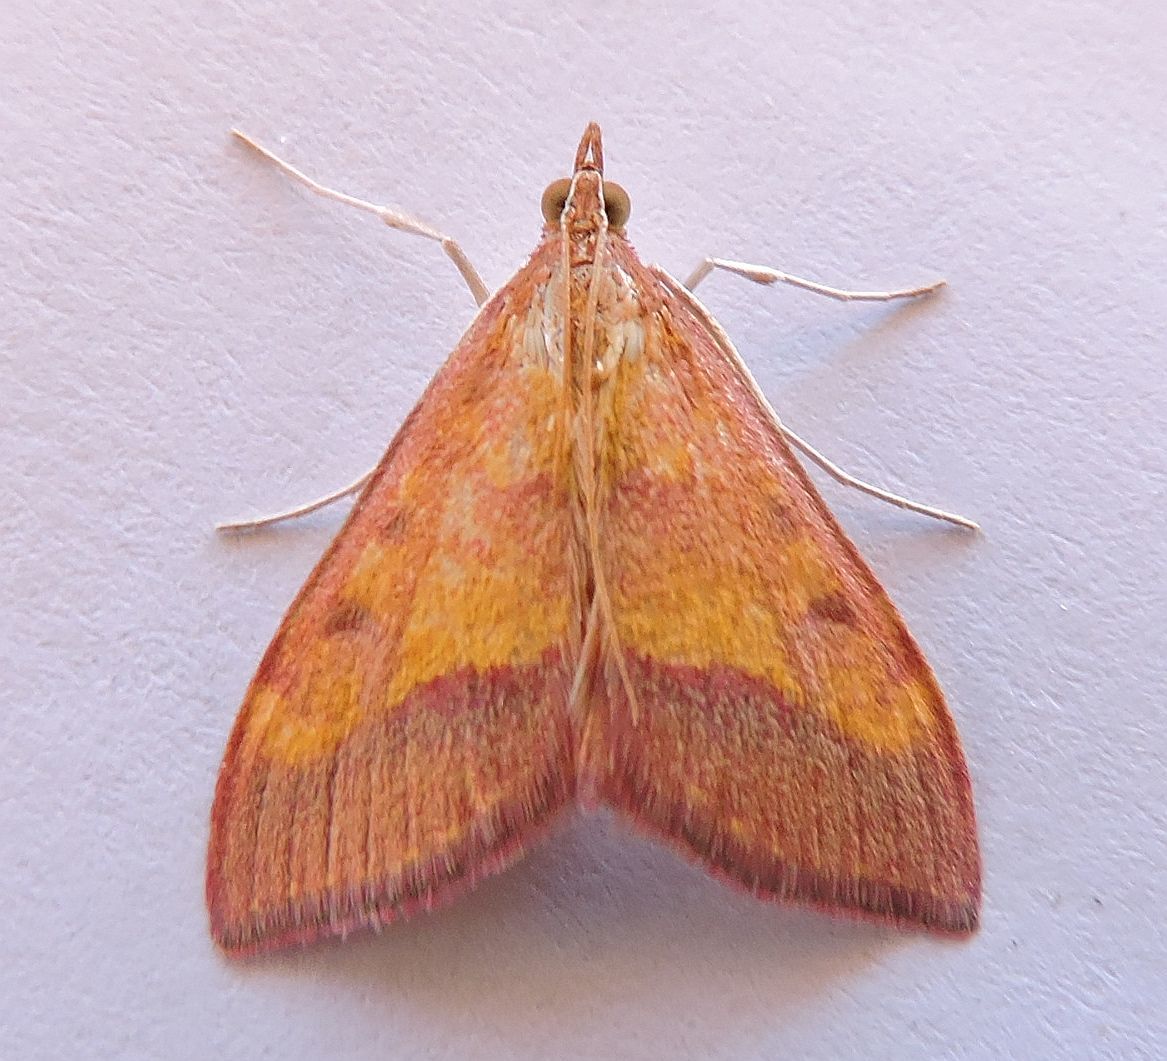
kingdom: Animalia
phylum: Arthropoda
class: Insecta
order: Lepidoptera
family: Crambidae
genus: Pyrausta
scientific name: Pyrausta arizonicalis
